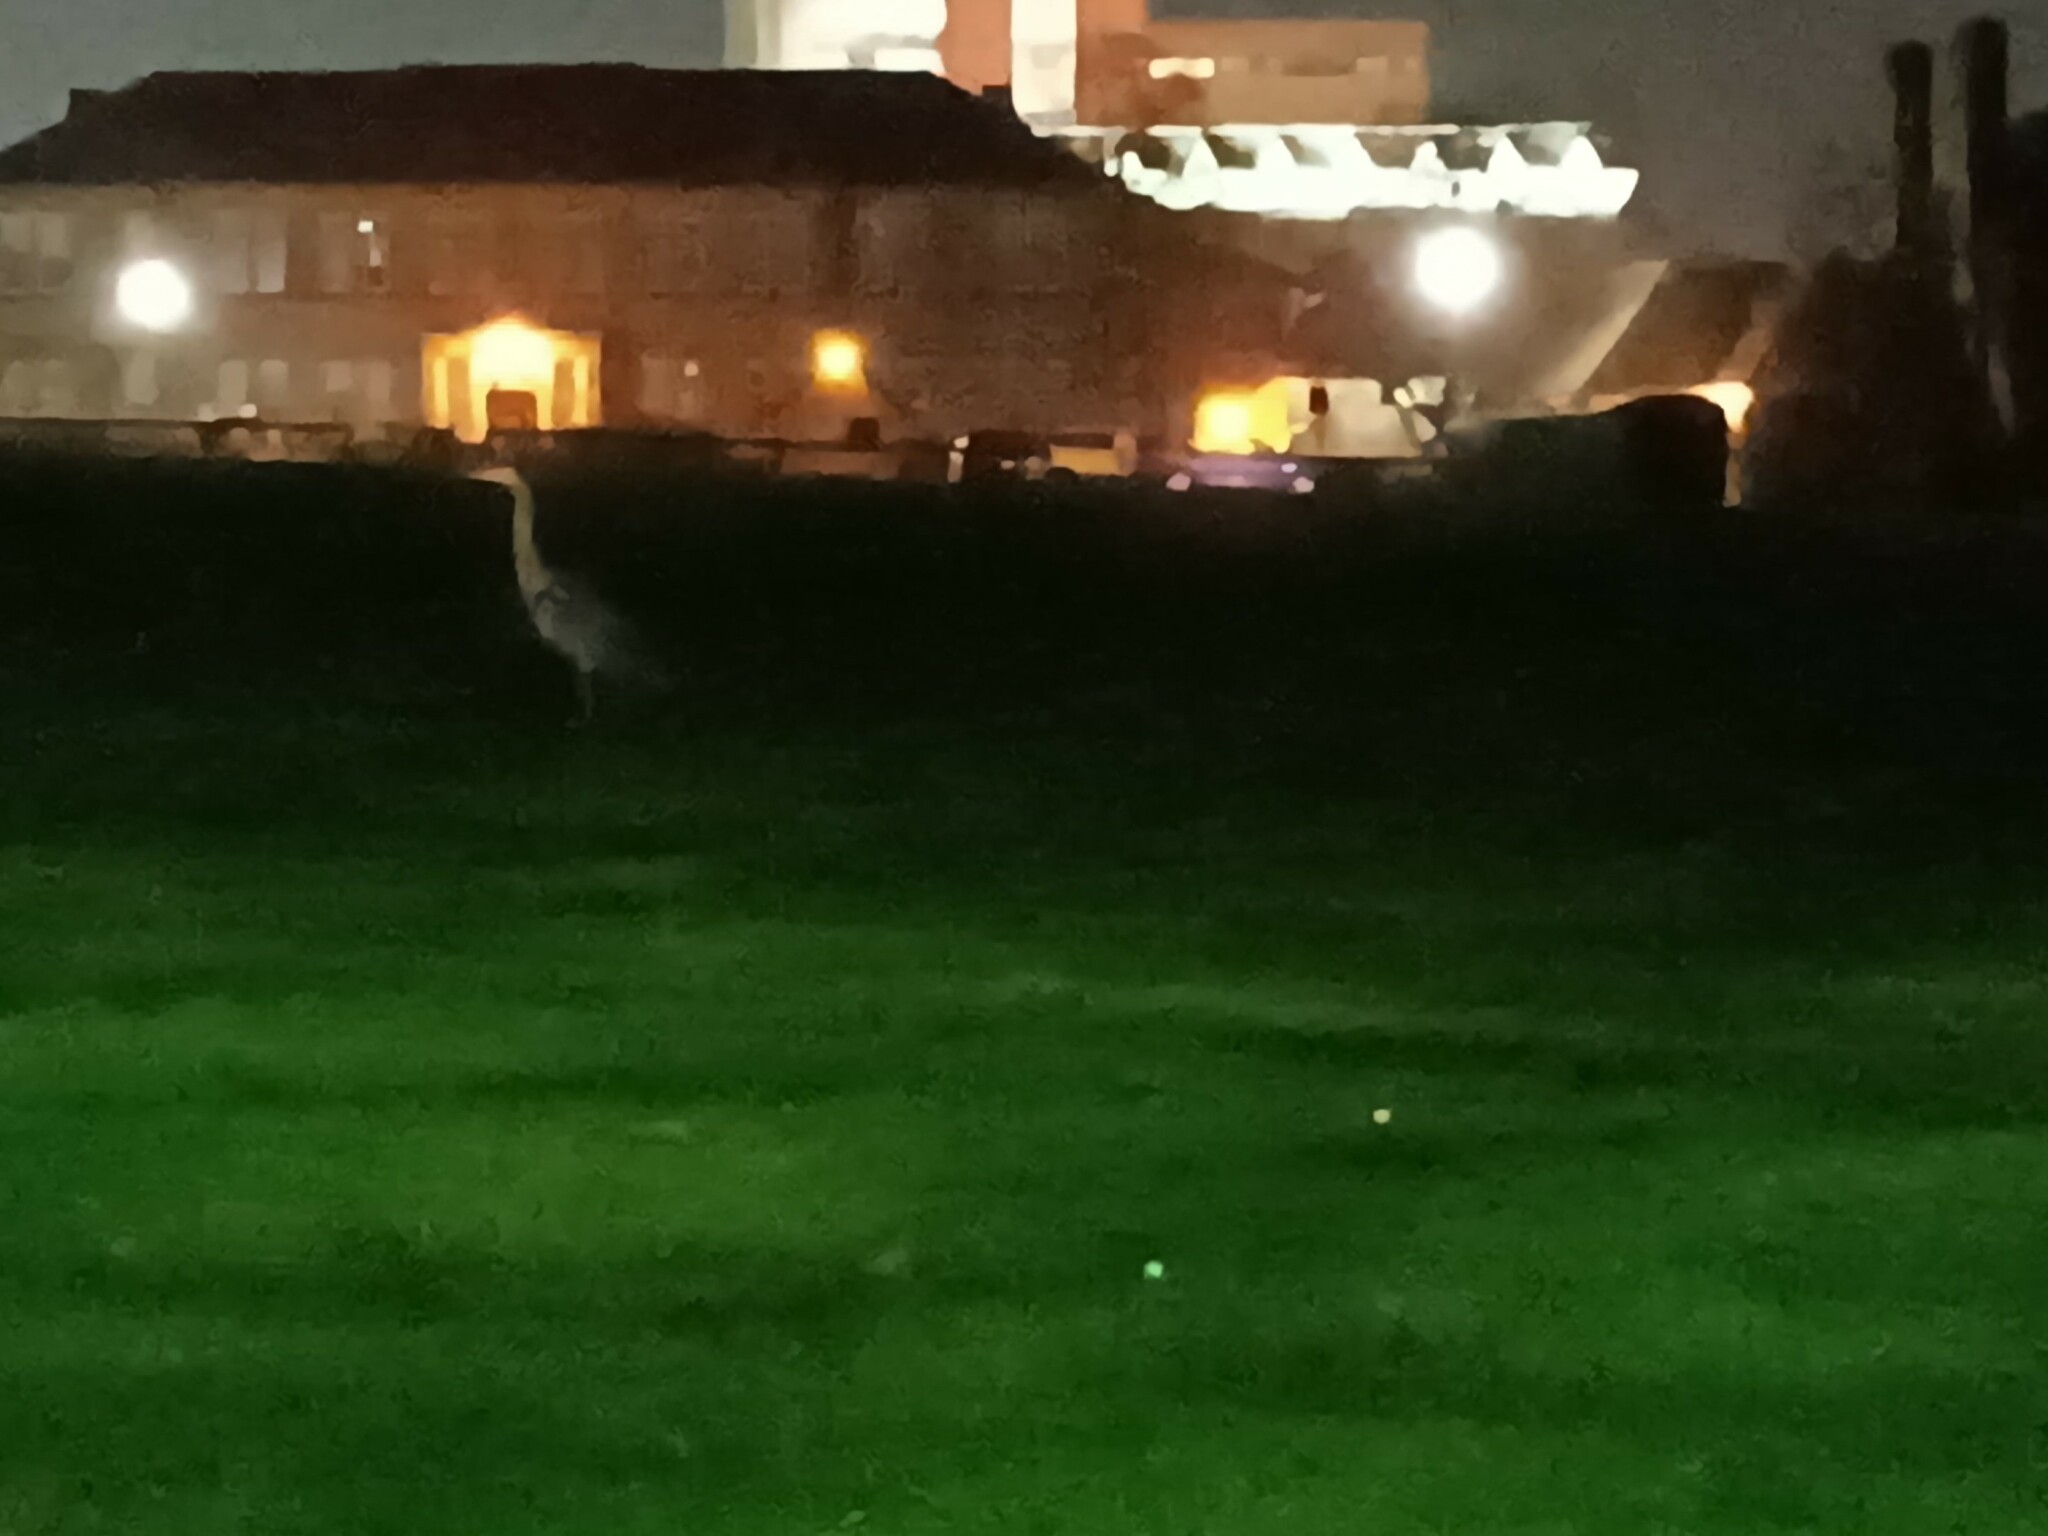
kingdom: Animalia
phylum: Chordata
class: Aves
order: Pelecaniformes
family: Ardeidae
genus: Ardea
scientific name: Ardea cinerea
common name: Grey heron
